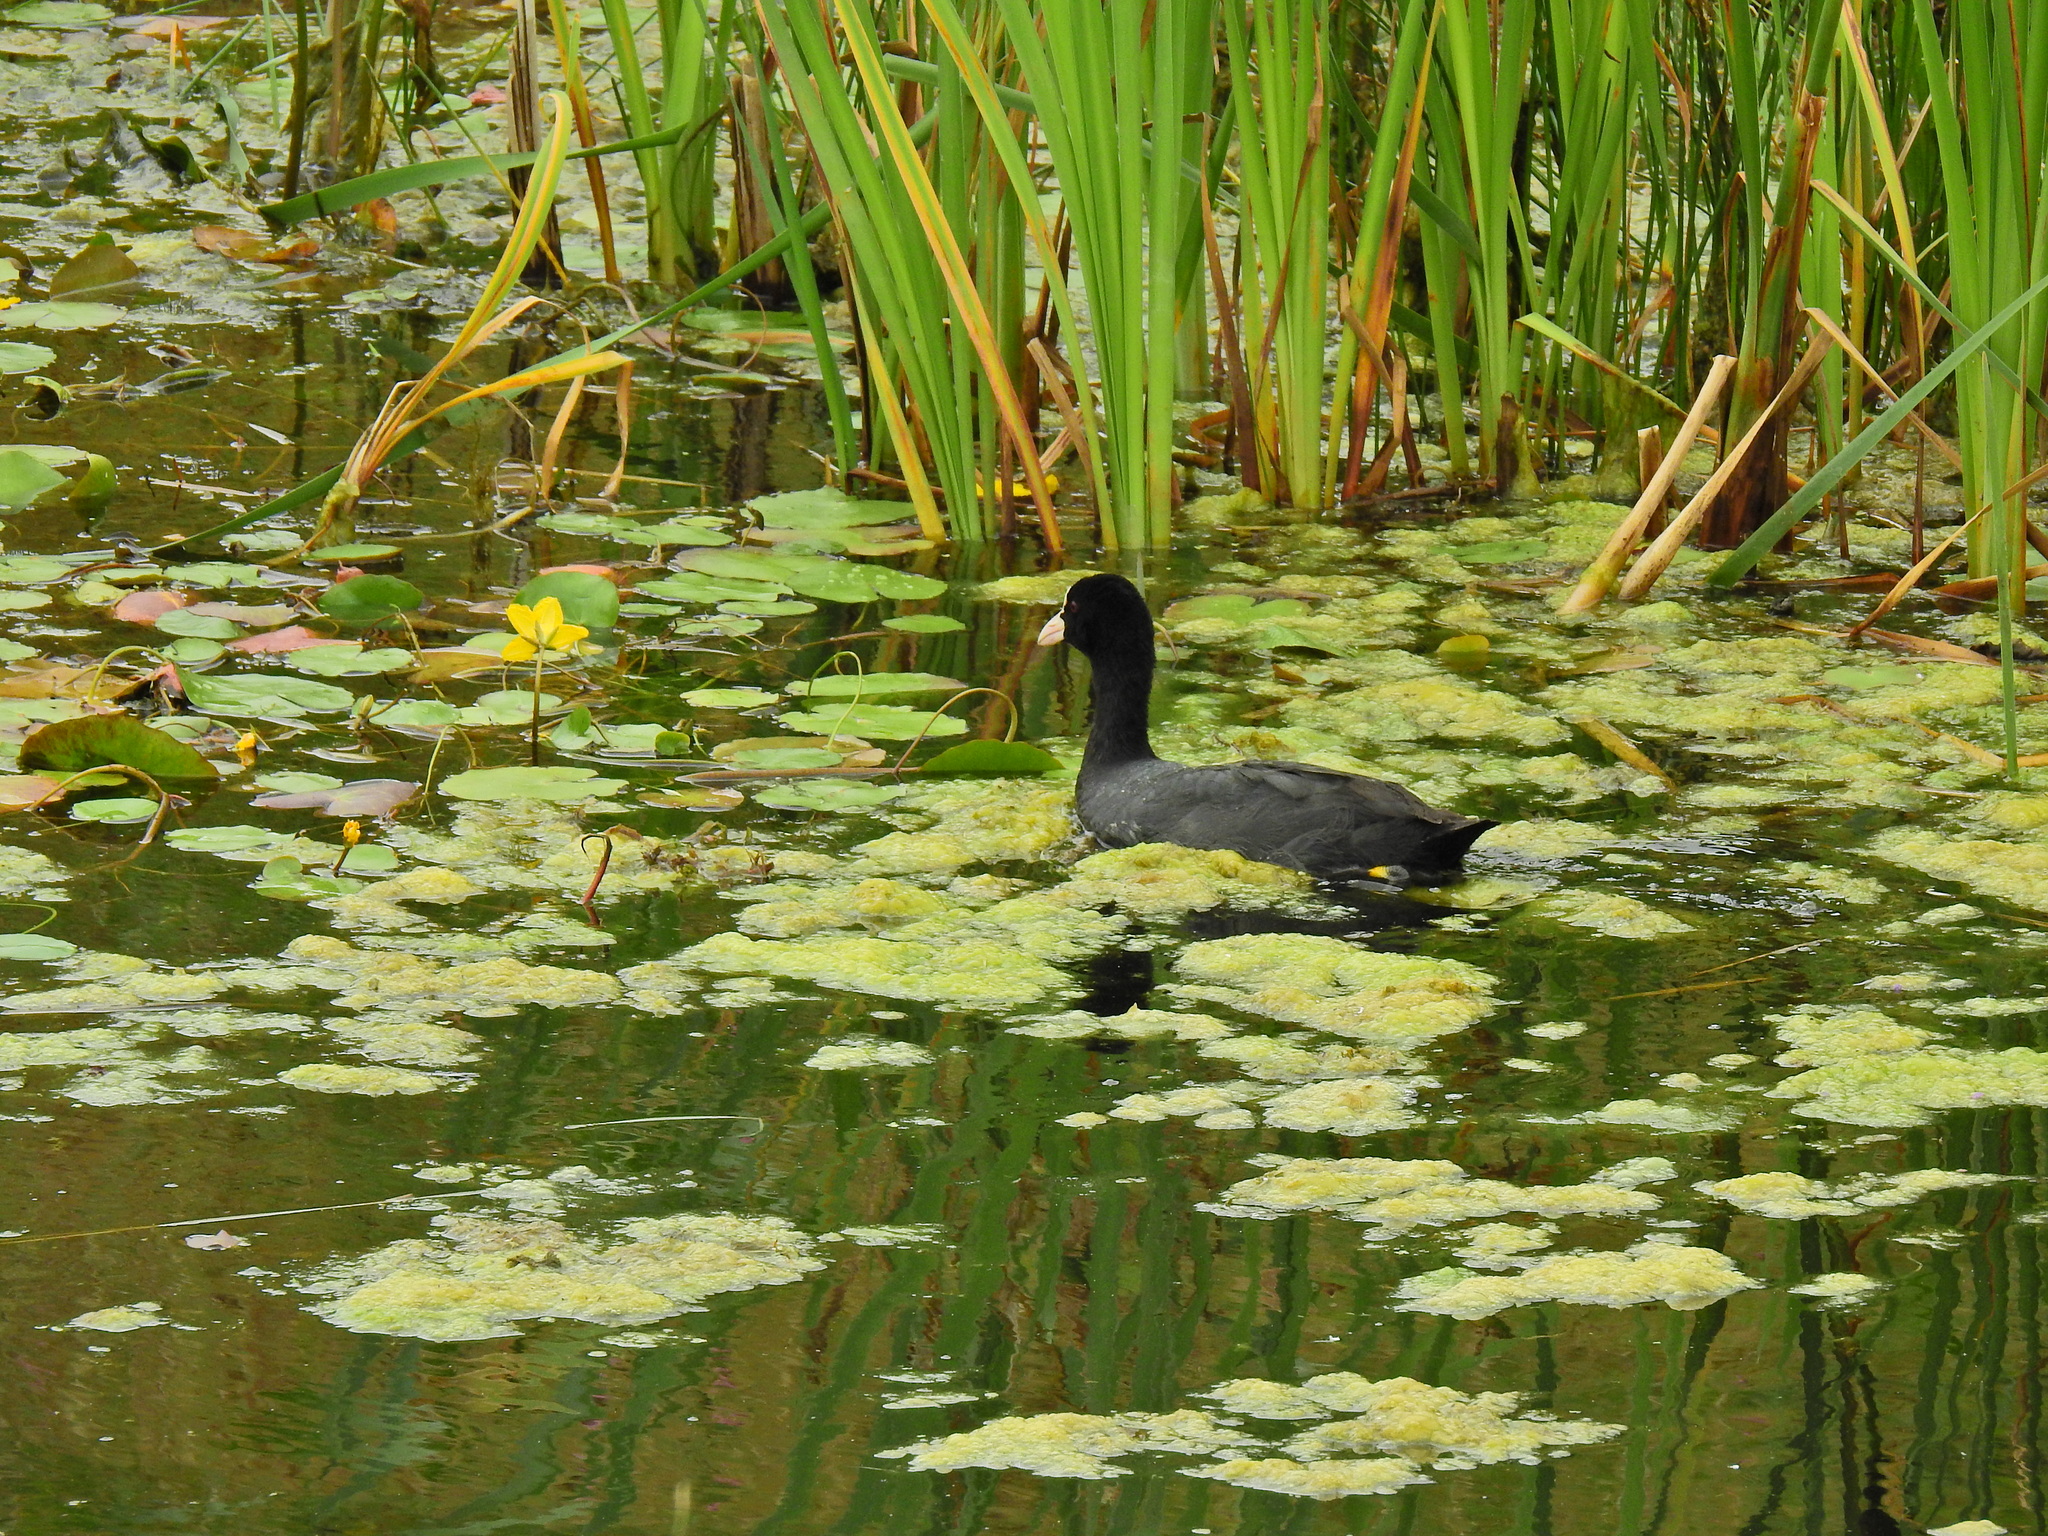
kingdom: Animalia
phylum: Chordata
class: Aves
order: Gruiformes
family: Rallidae
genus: Fulica
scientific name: Fulica atra
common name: Eurasian coot
